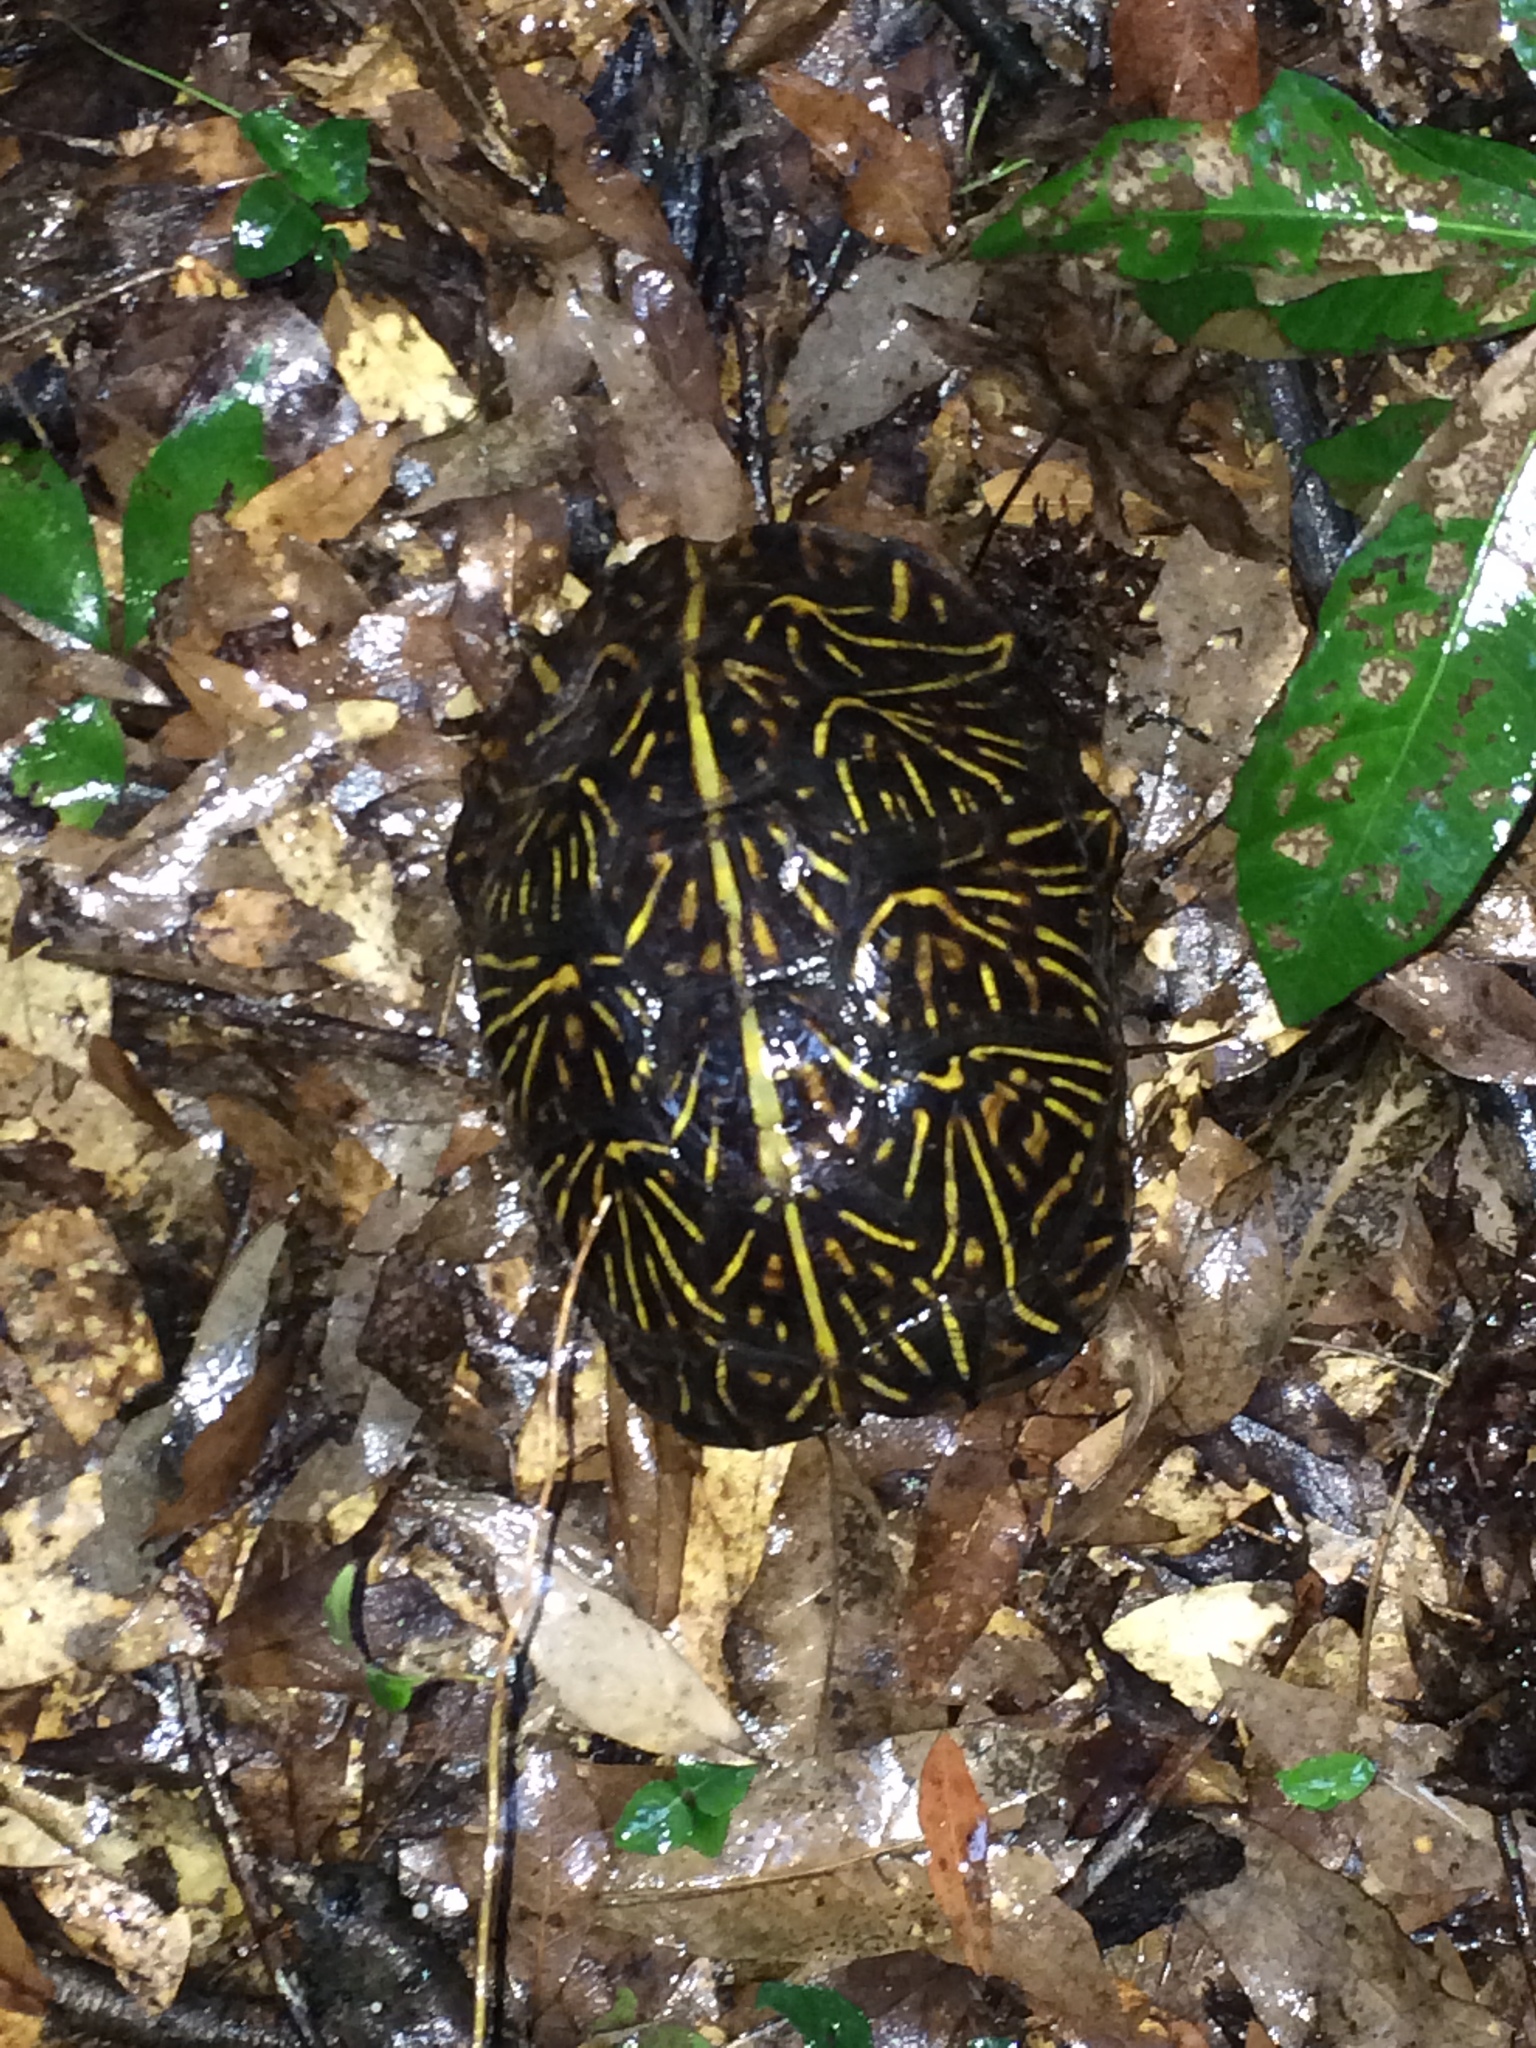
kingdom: Animalia
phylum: Chordata
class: Testudines
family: Emydidae
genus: Terrapene
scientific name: Terrapene carolina
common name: Common box turtle
